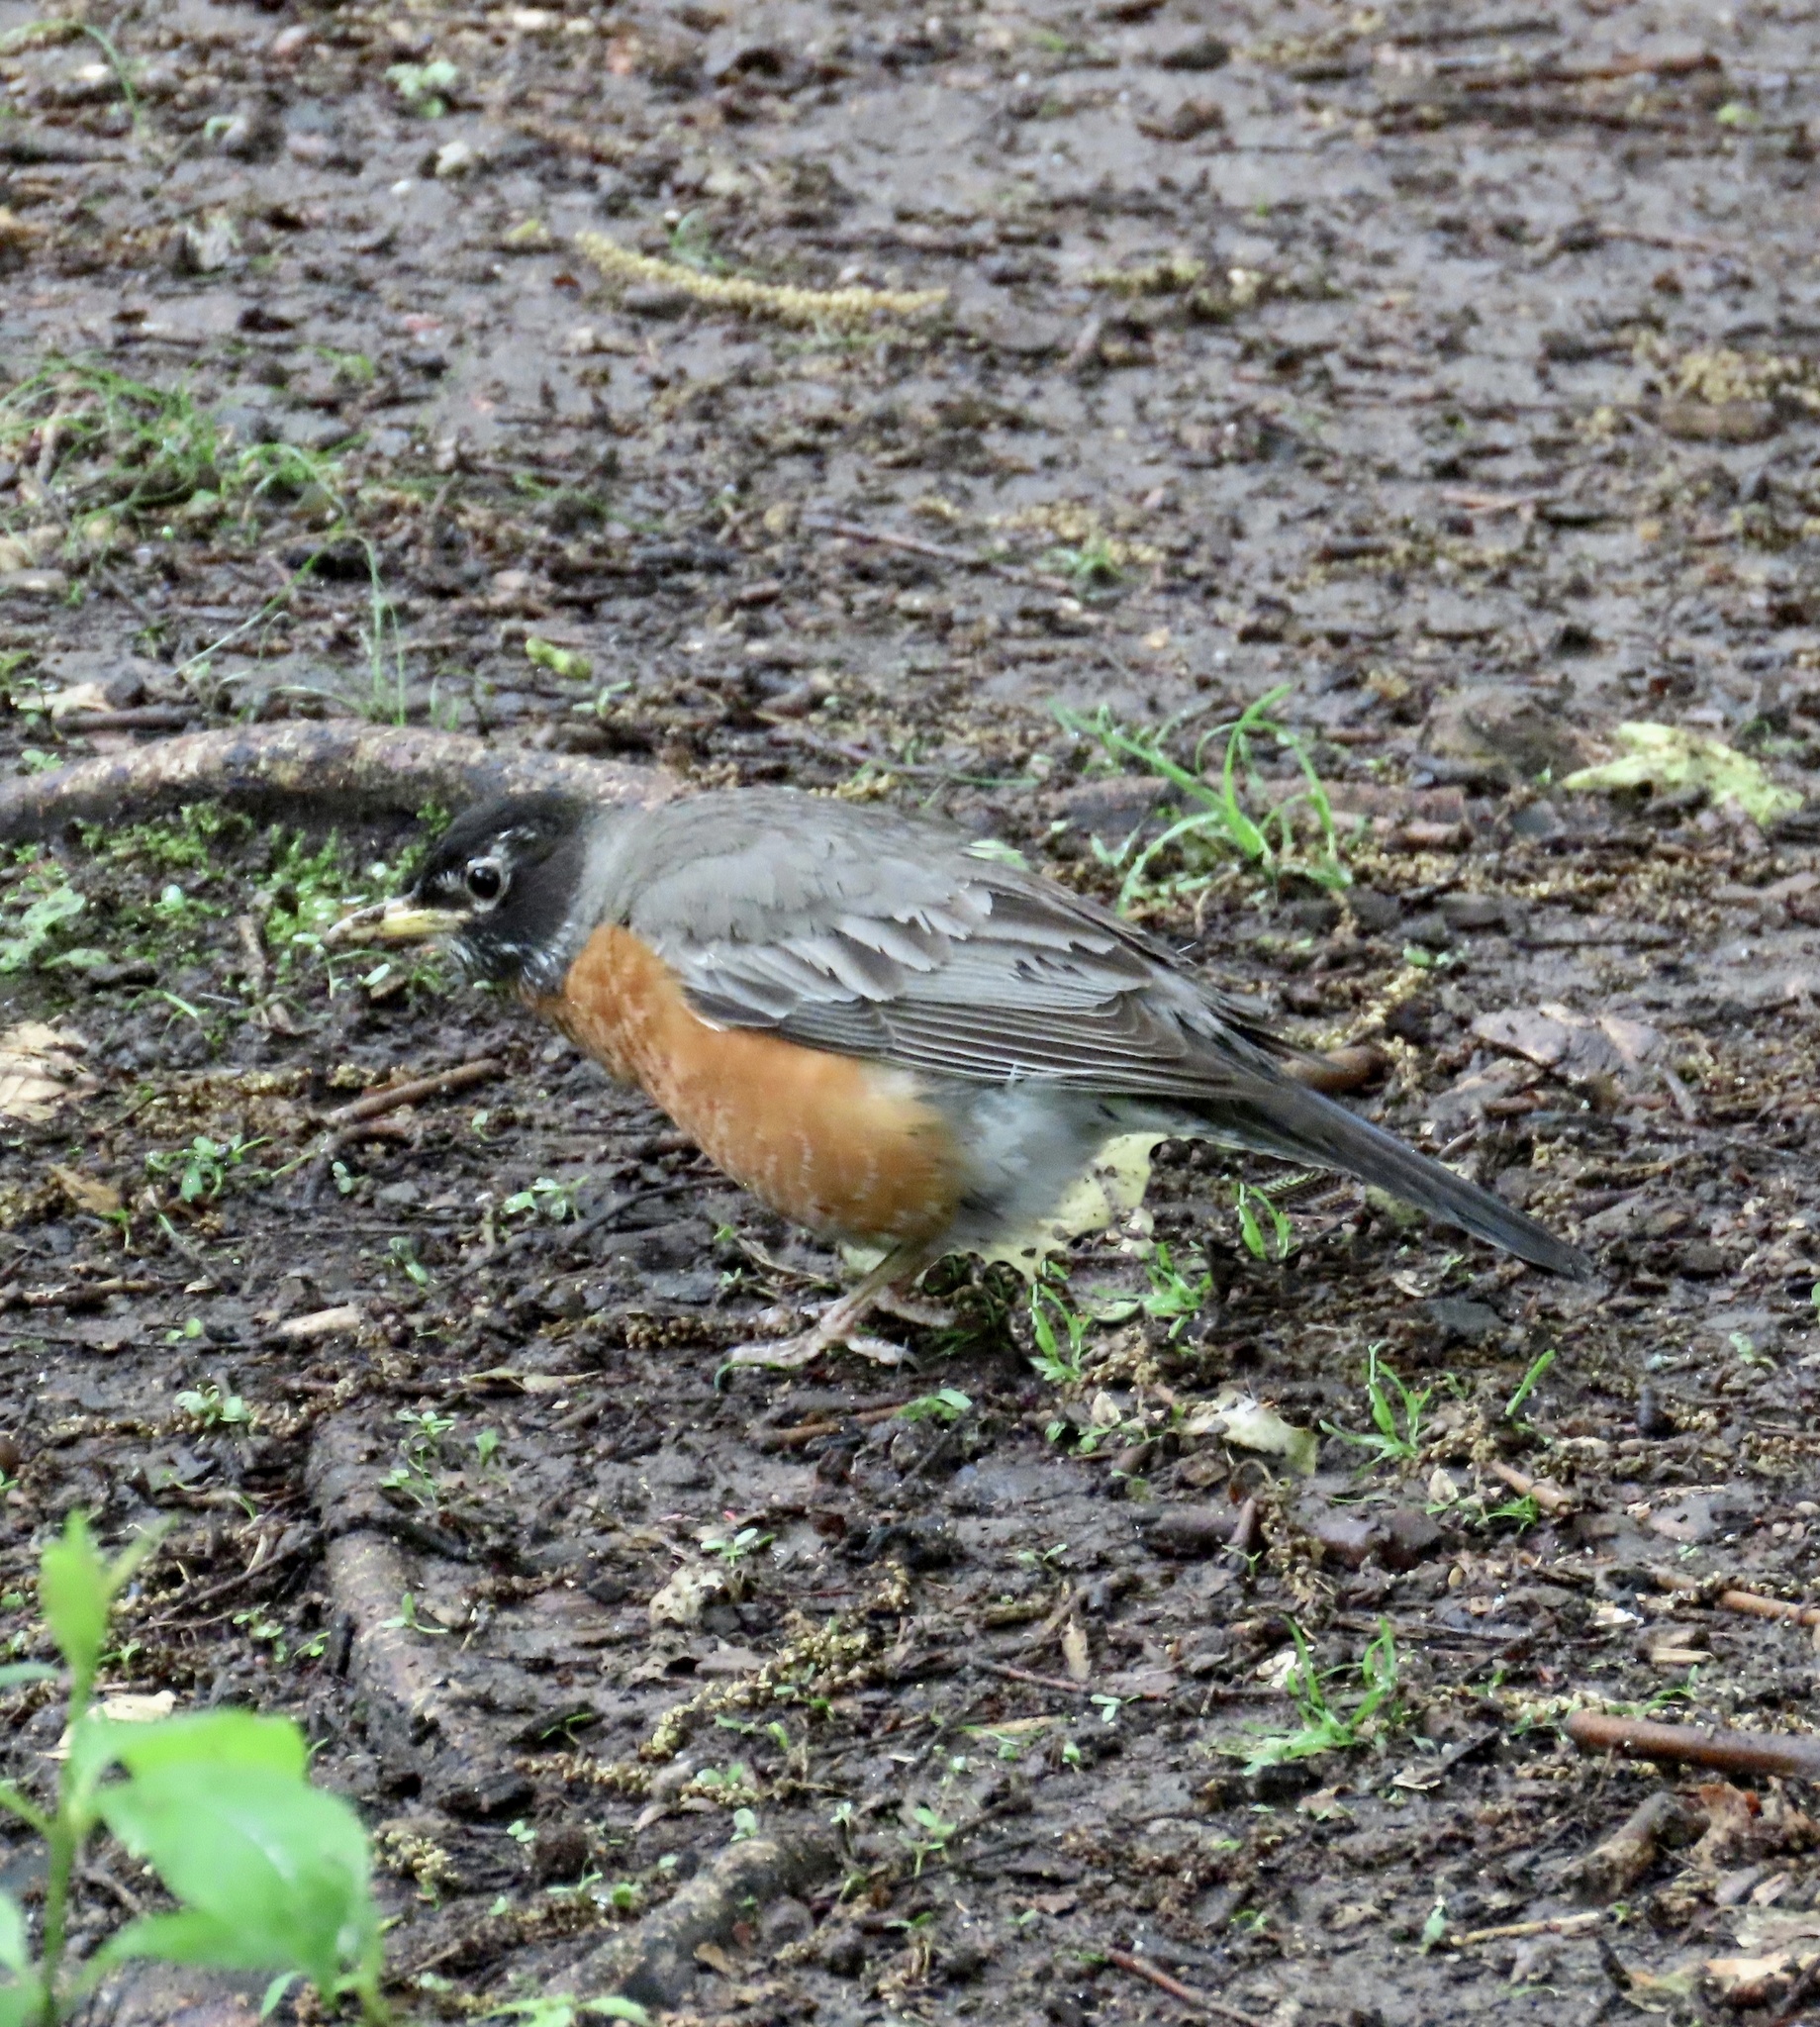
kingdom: Animalia
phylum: Chordata
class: Aves
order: Passeriformes
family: Turdidae
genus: Turdus
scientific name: Turdus migratorius
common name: American robin
